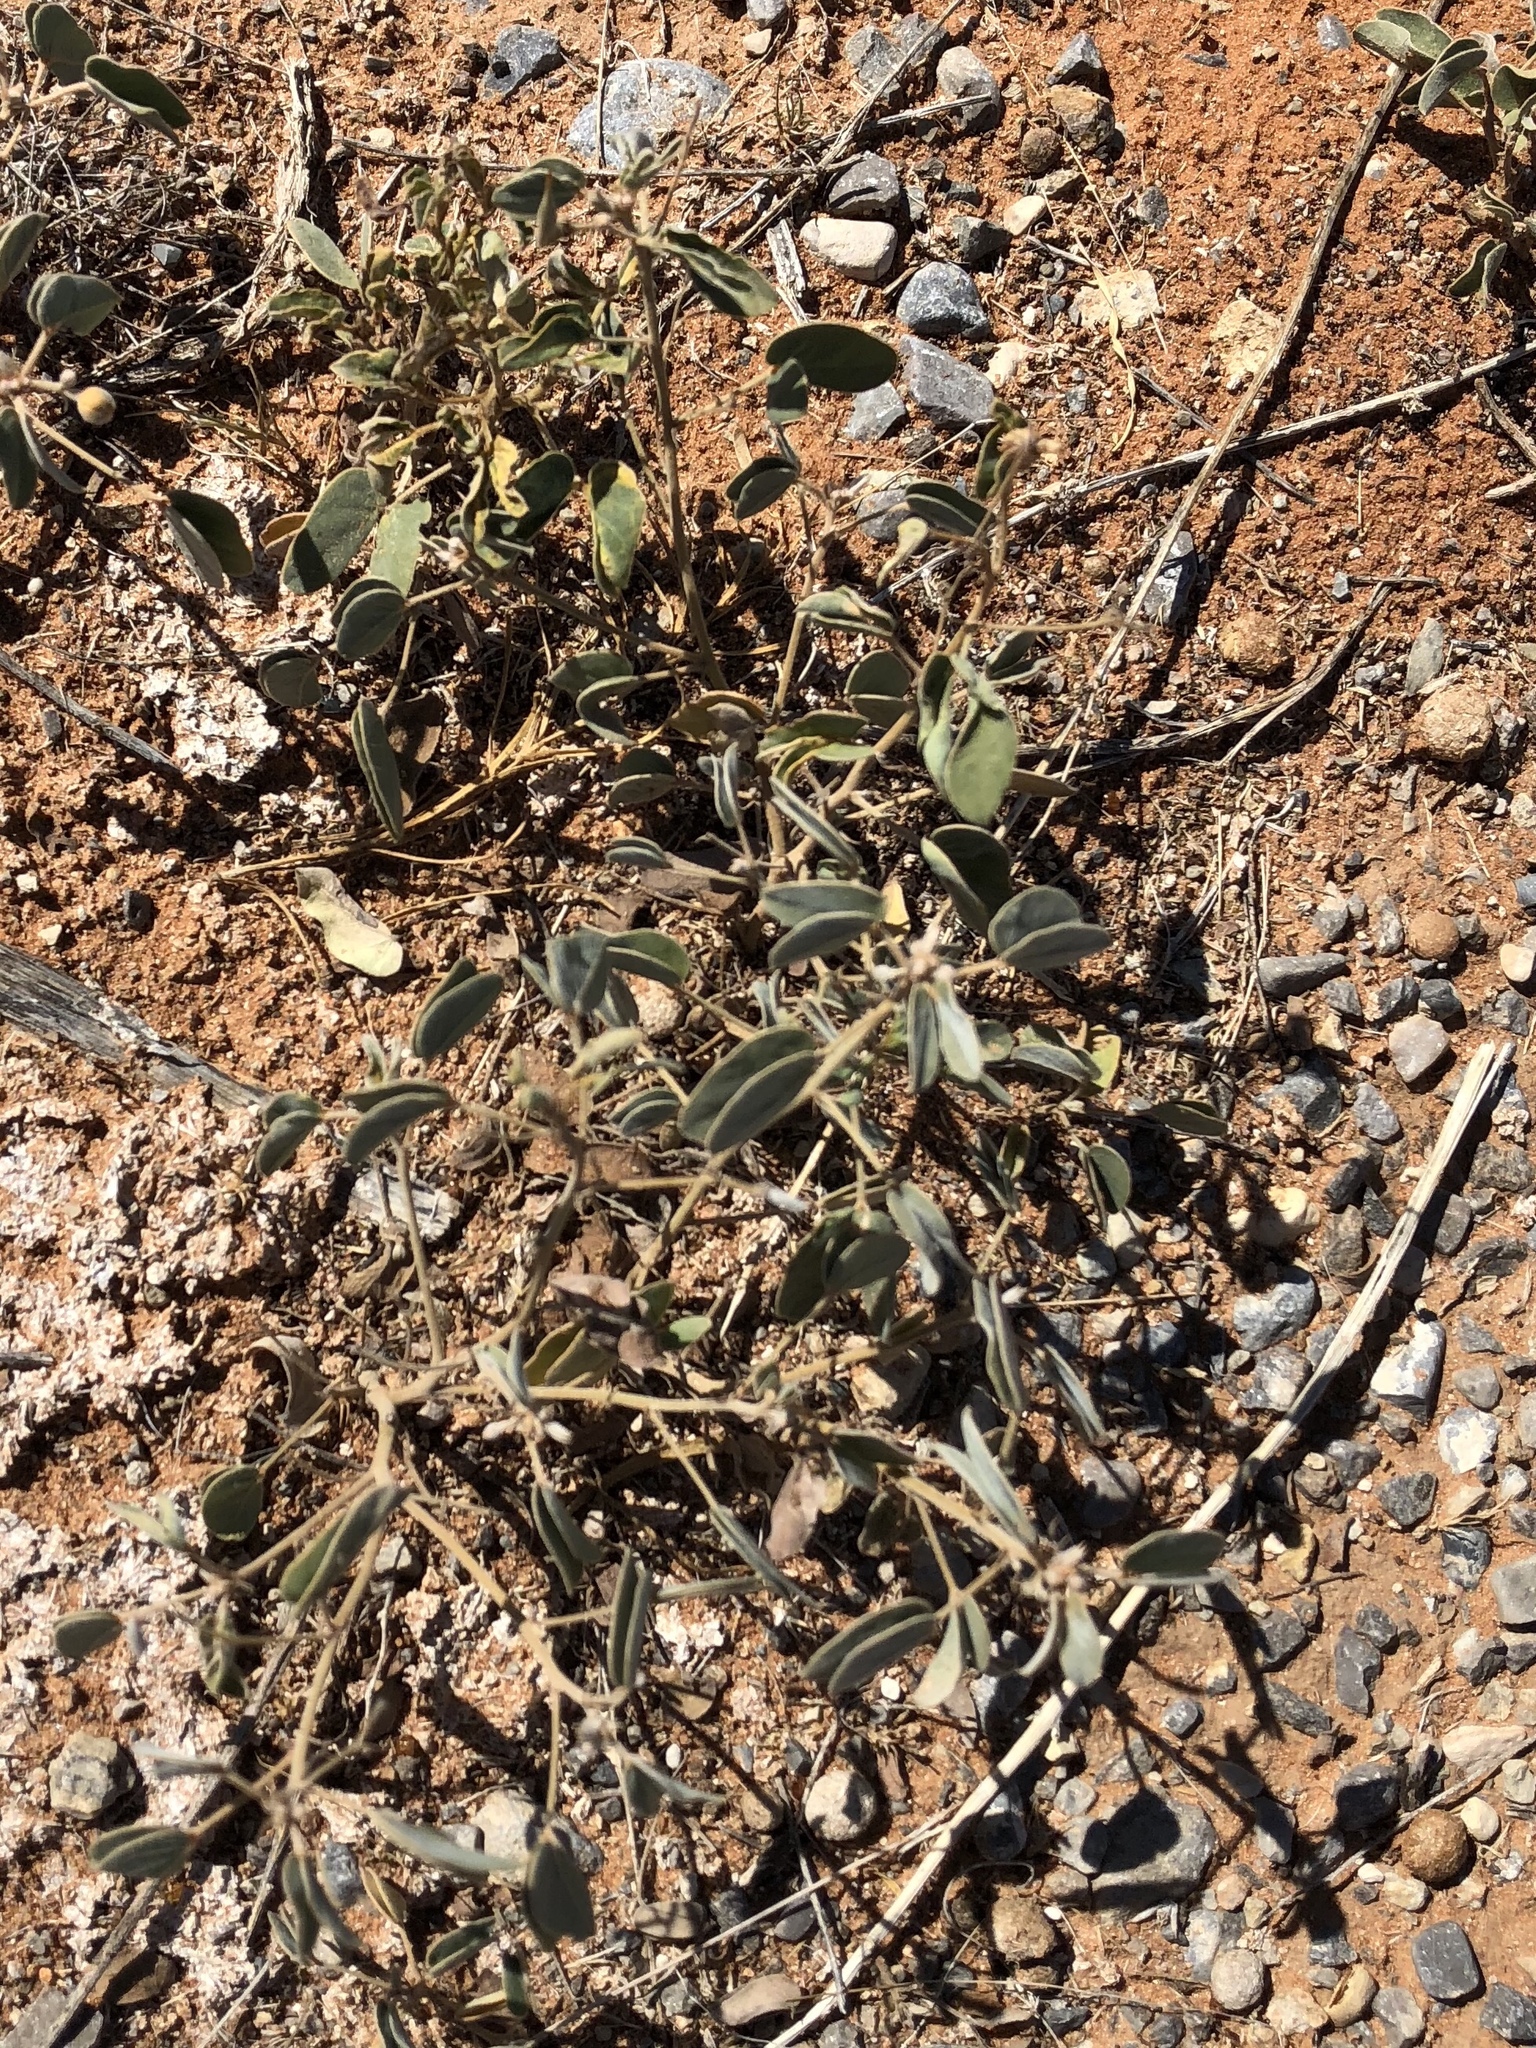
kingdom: Plantae
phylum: Tracheophyta
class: Magnoliopsida
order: Fabales
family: Fabaceae
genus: Senna
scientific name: Senna bauhinioides
